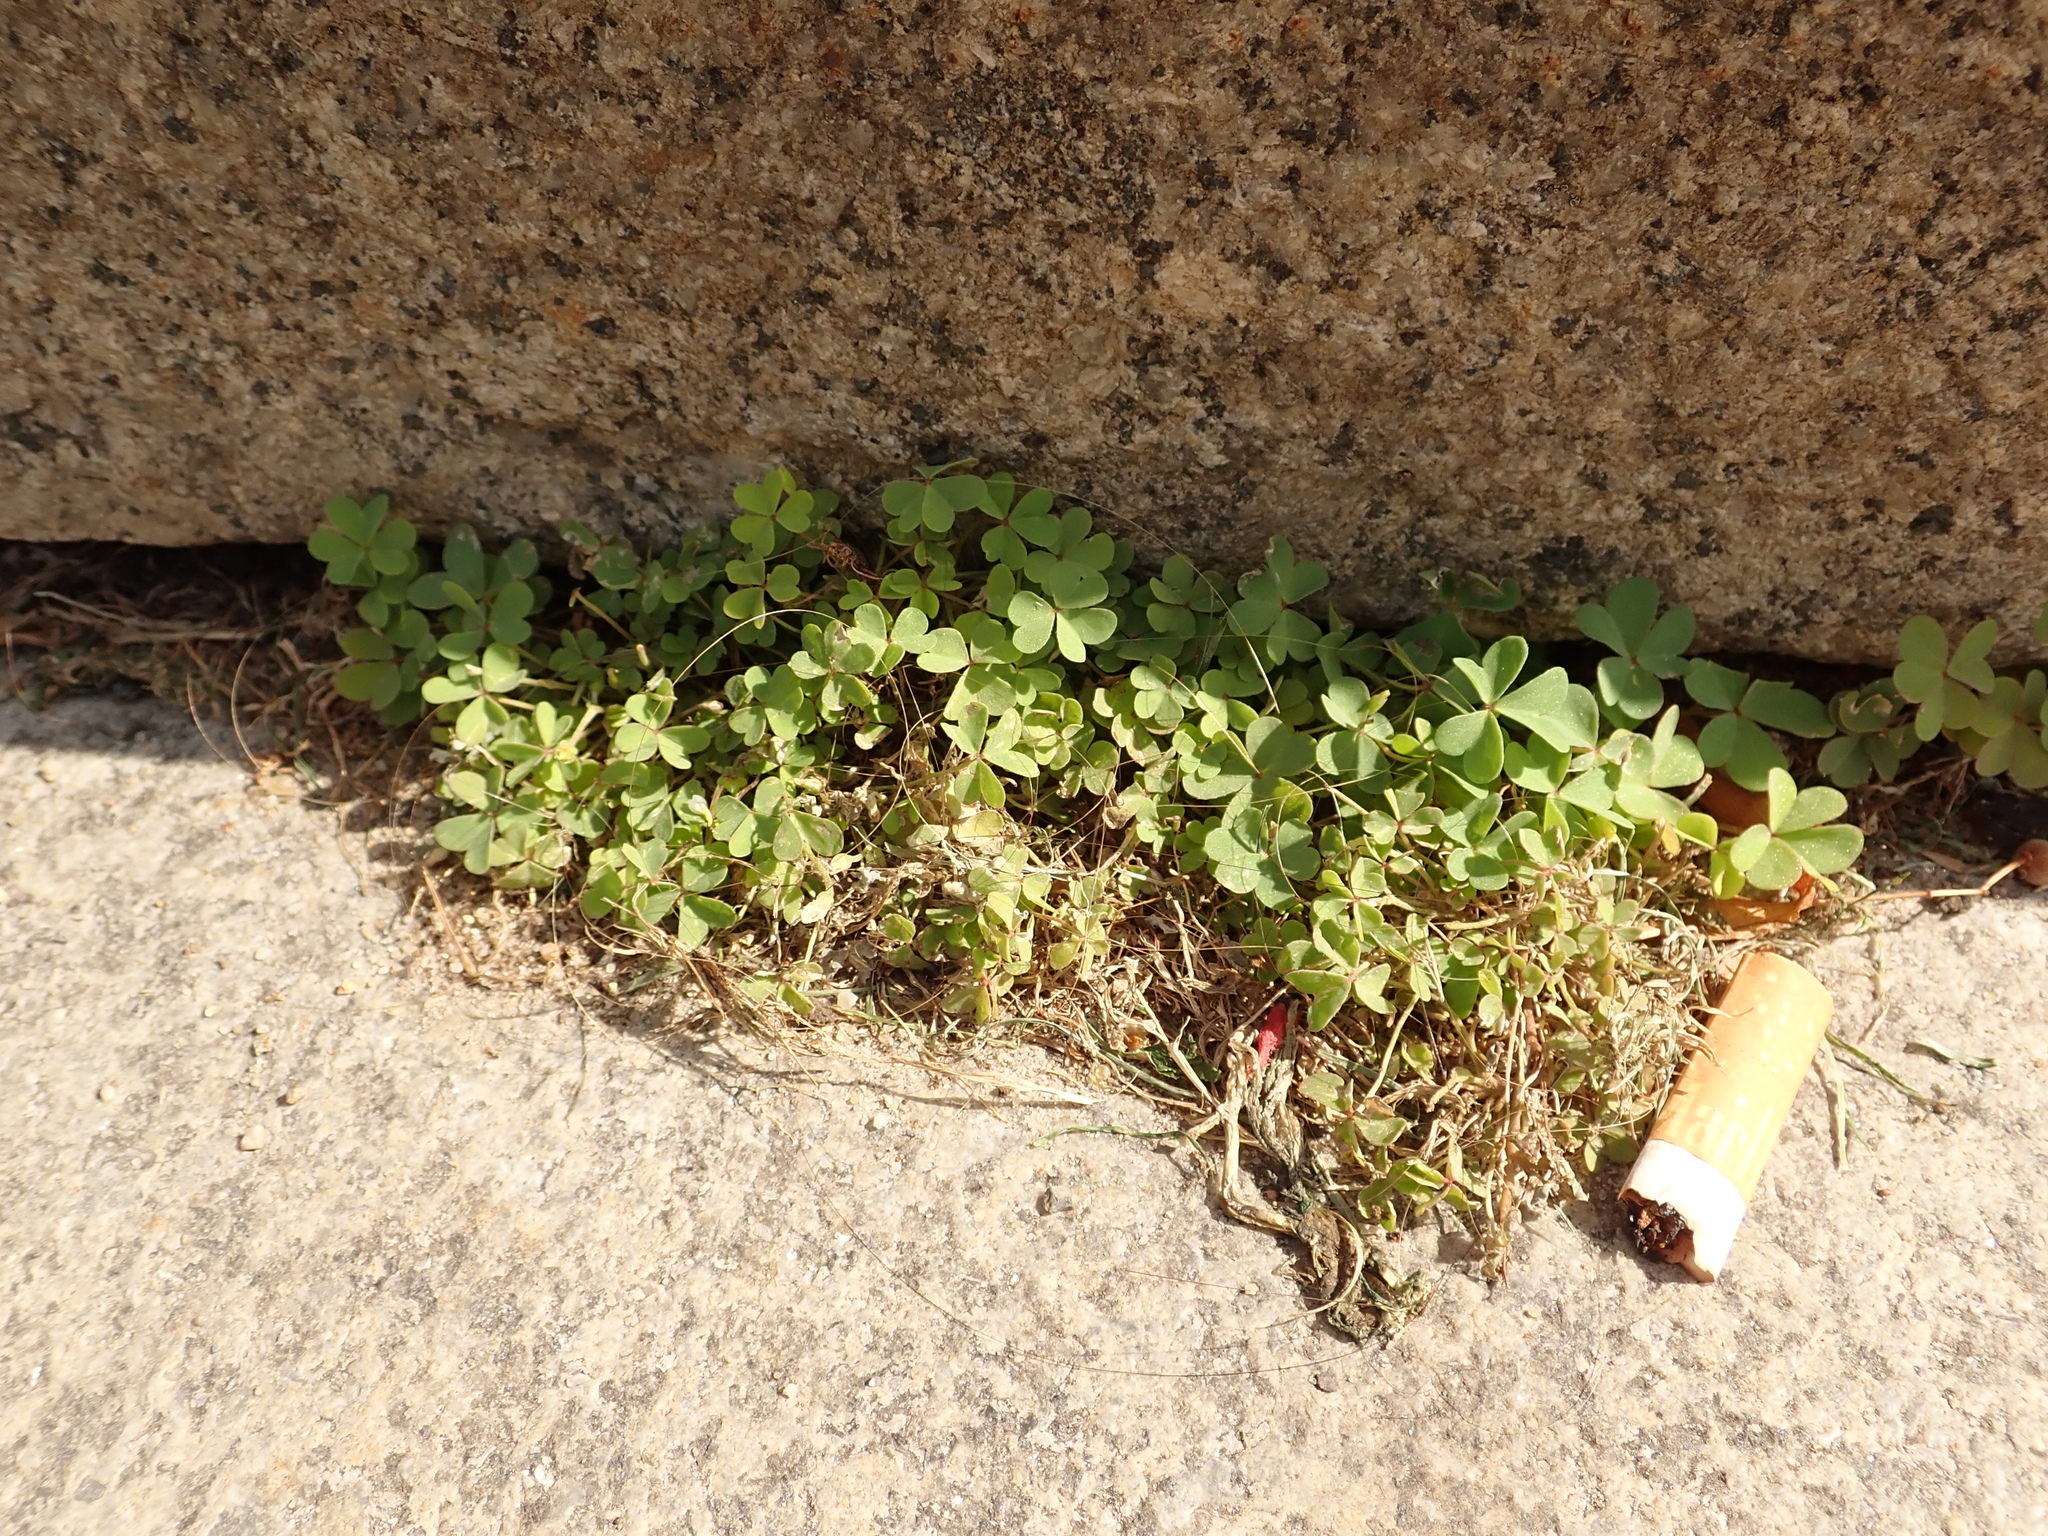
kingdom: Plantae
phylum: Tracheophyta
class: Magnoliopsida
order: Oxalidales
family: Oxalidaceae
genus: Oxalis
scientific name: Oxalis corniculata
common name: Procumbent yellow-sorrel
